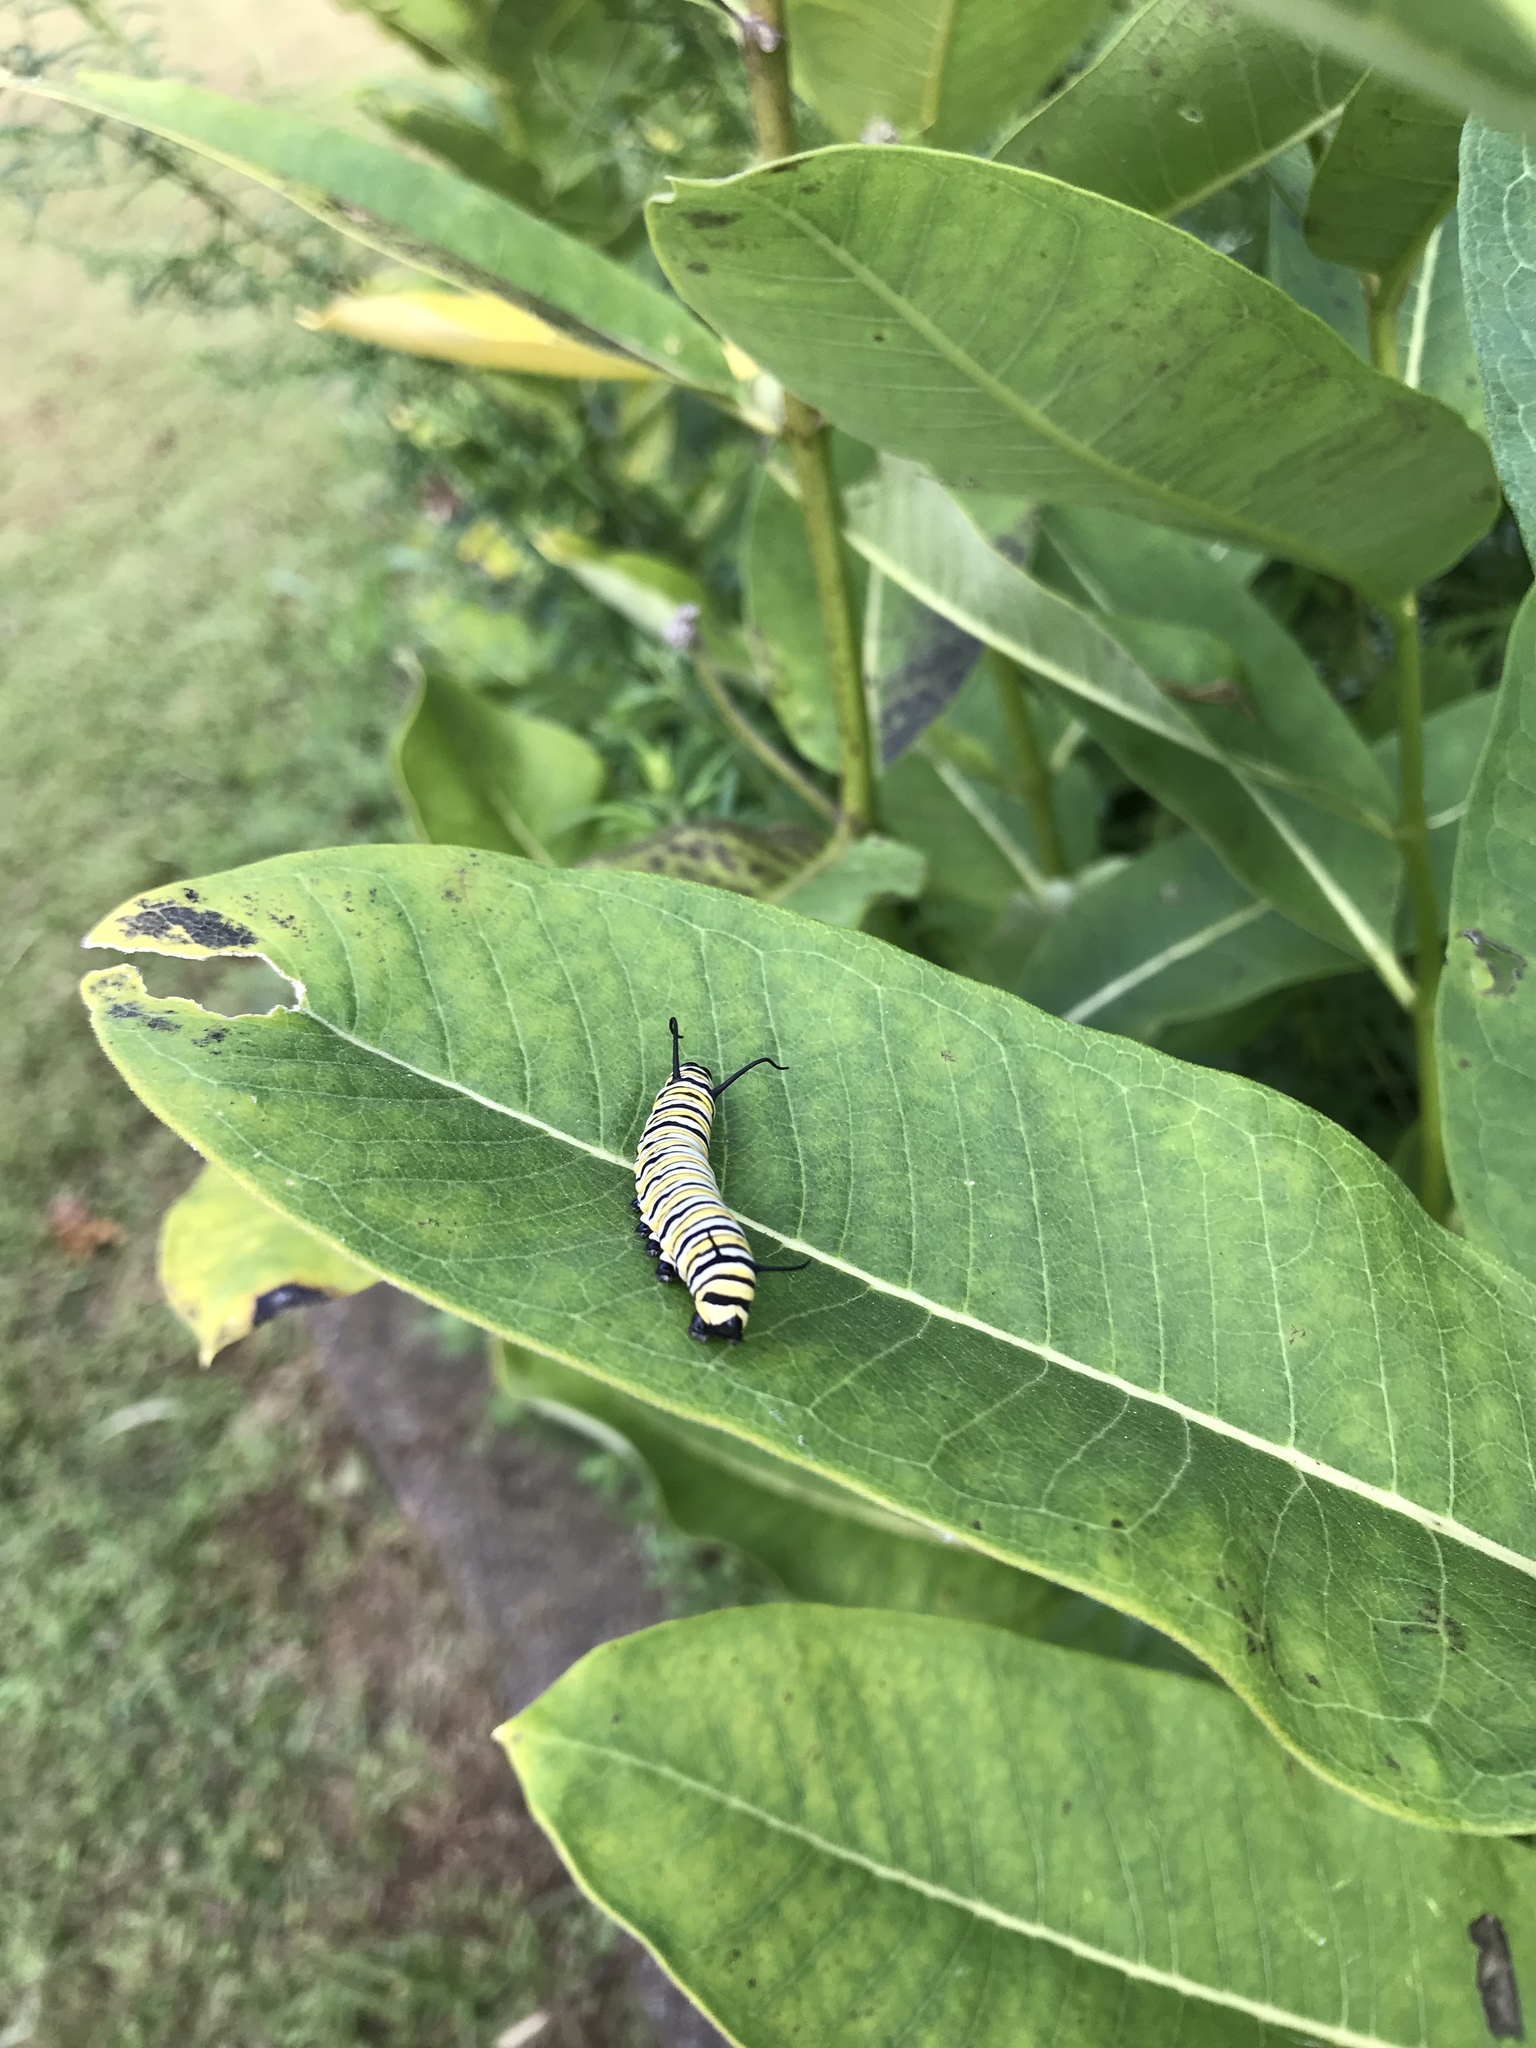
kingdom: Animalia
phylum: Arthropoda
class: Insecta
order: Lepidoptera
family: Nymphalidae
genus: Danaus
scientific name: Danaus plexippus
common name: Monarch
